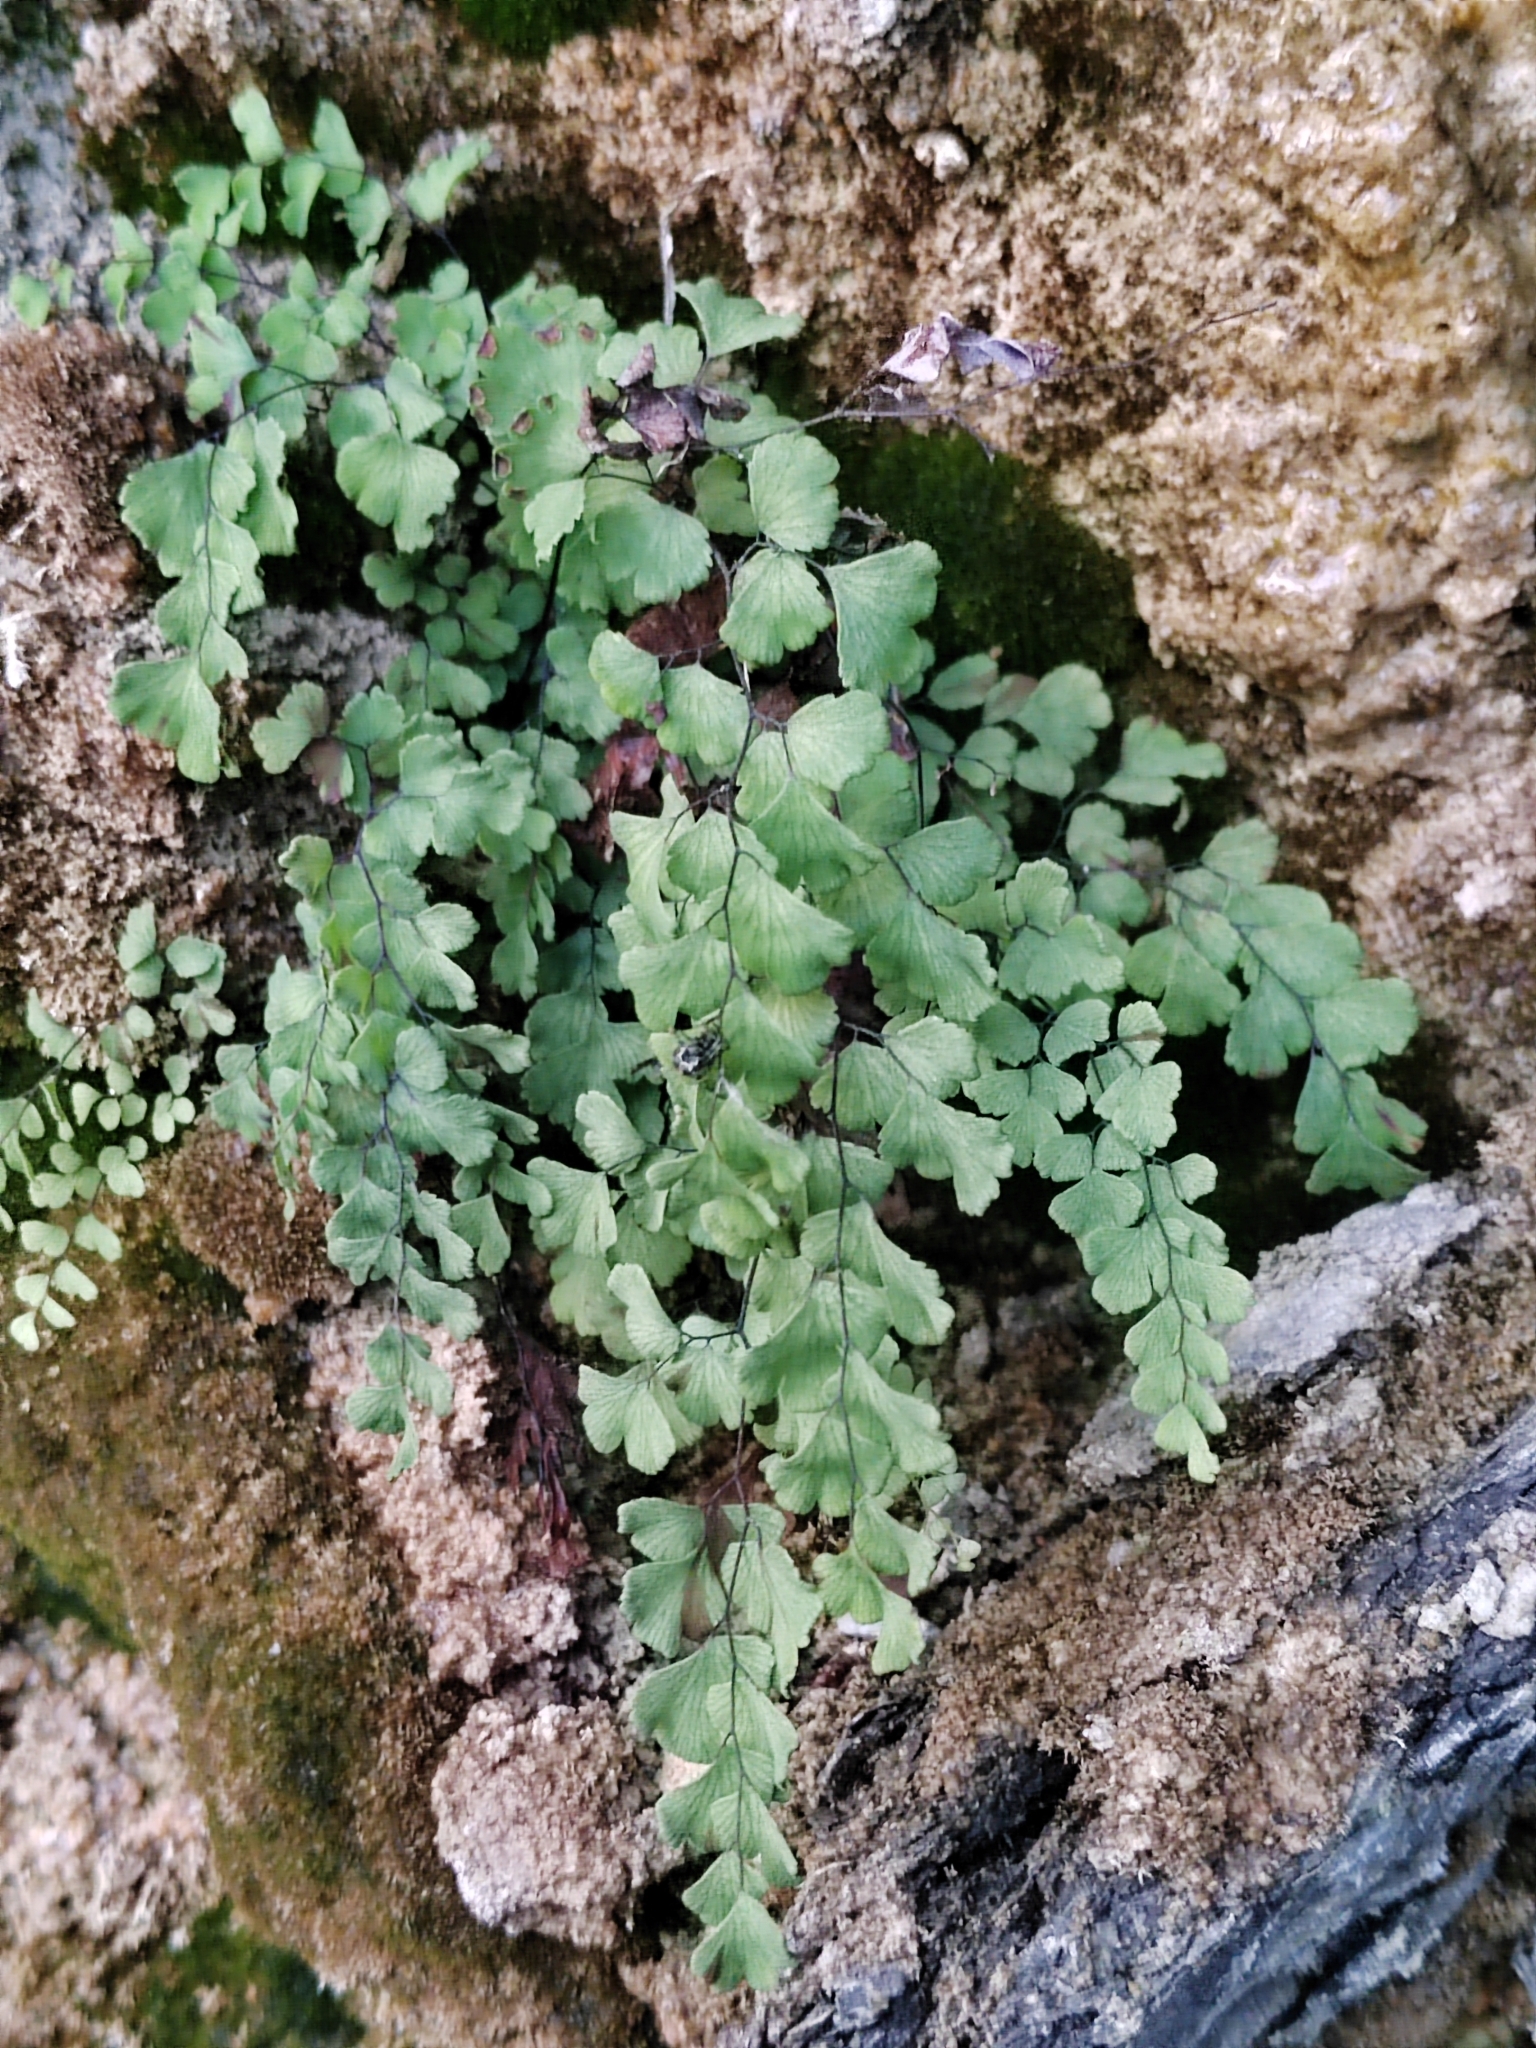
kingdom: Plantae
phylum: Tracheophyta
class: Polypodiopsida
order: Polypodiales
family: Pteridaceae
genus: Adiantum
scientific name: Adiantum capillus-veneris
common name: Maidenhair fern
